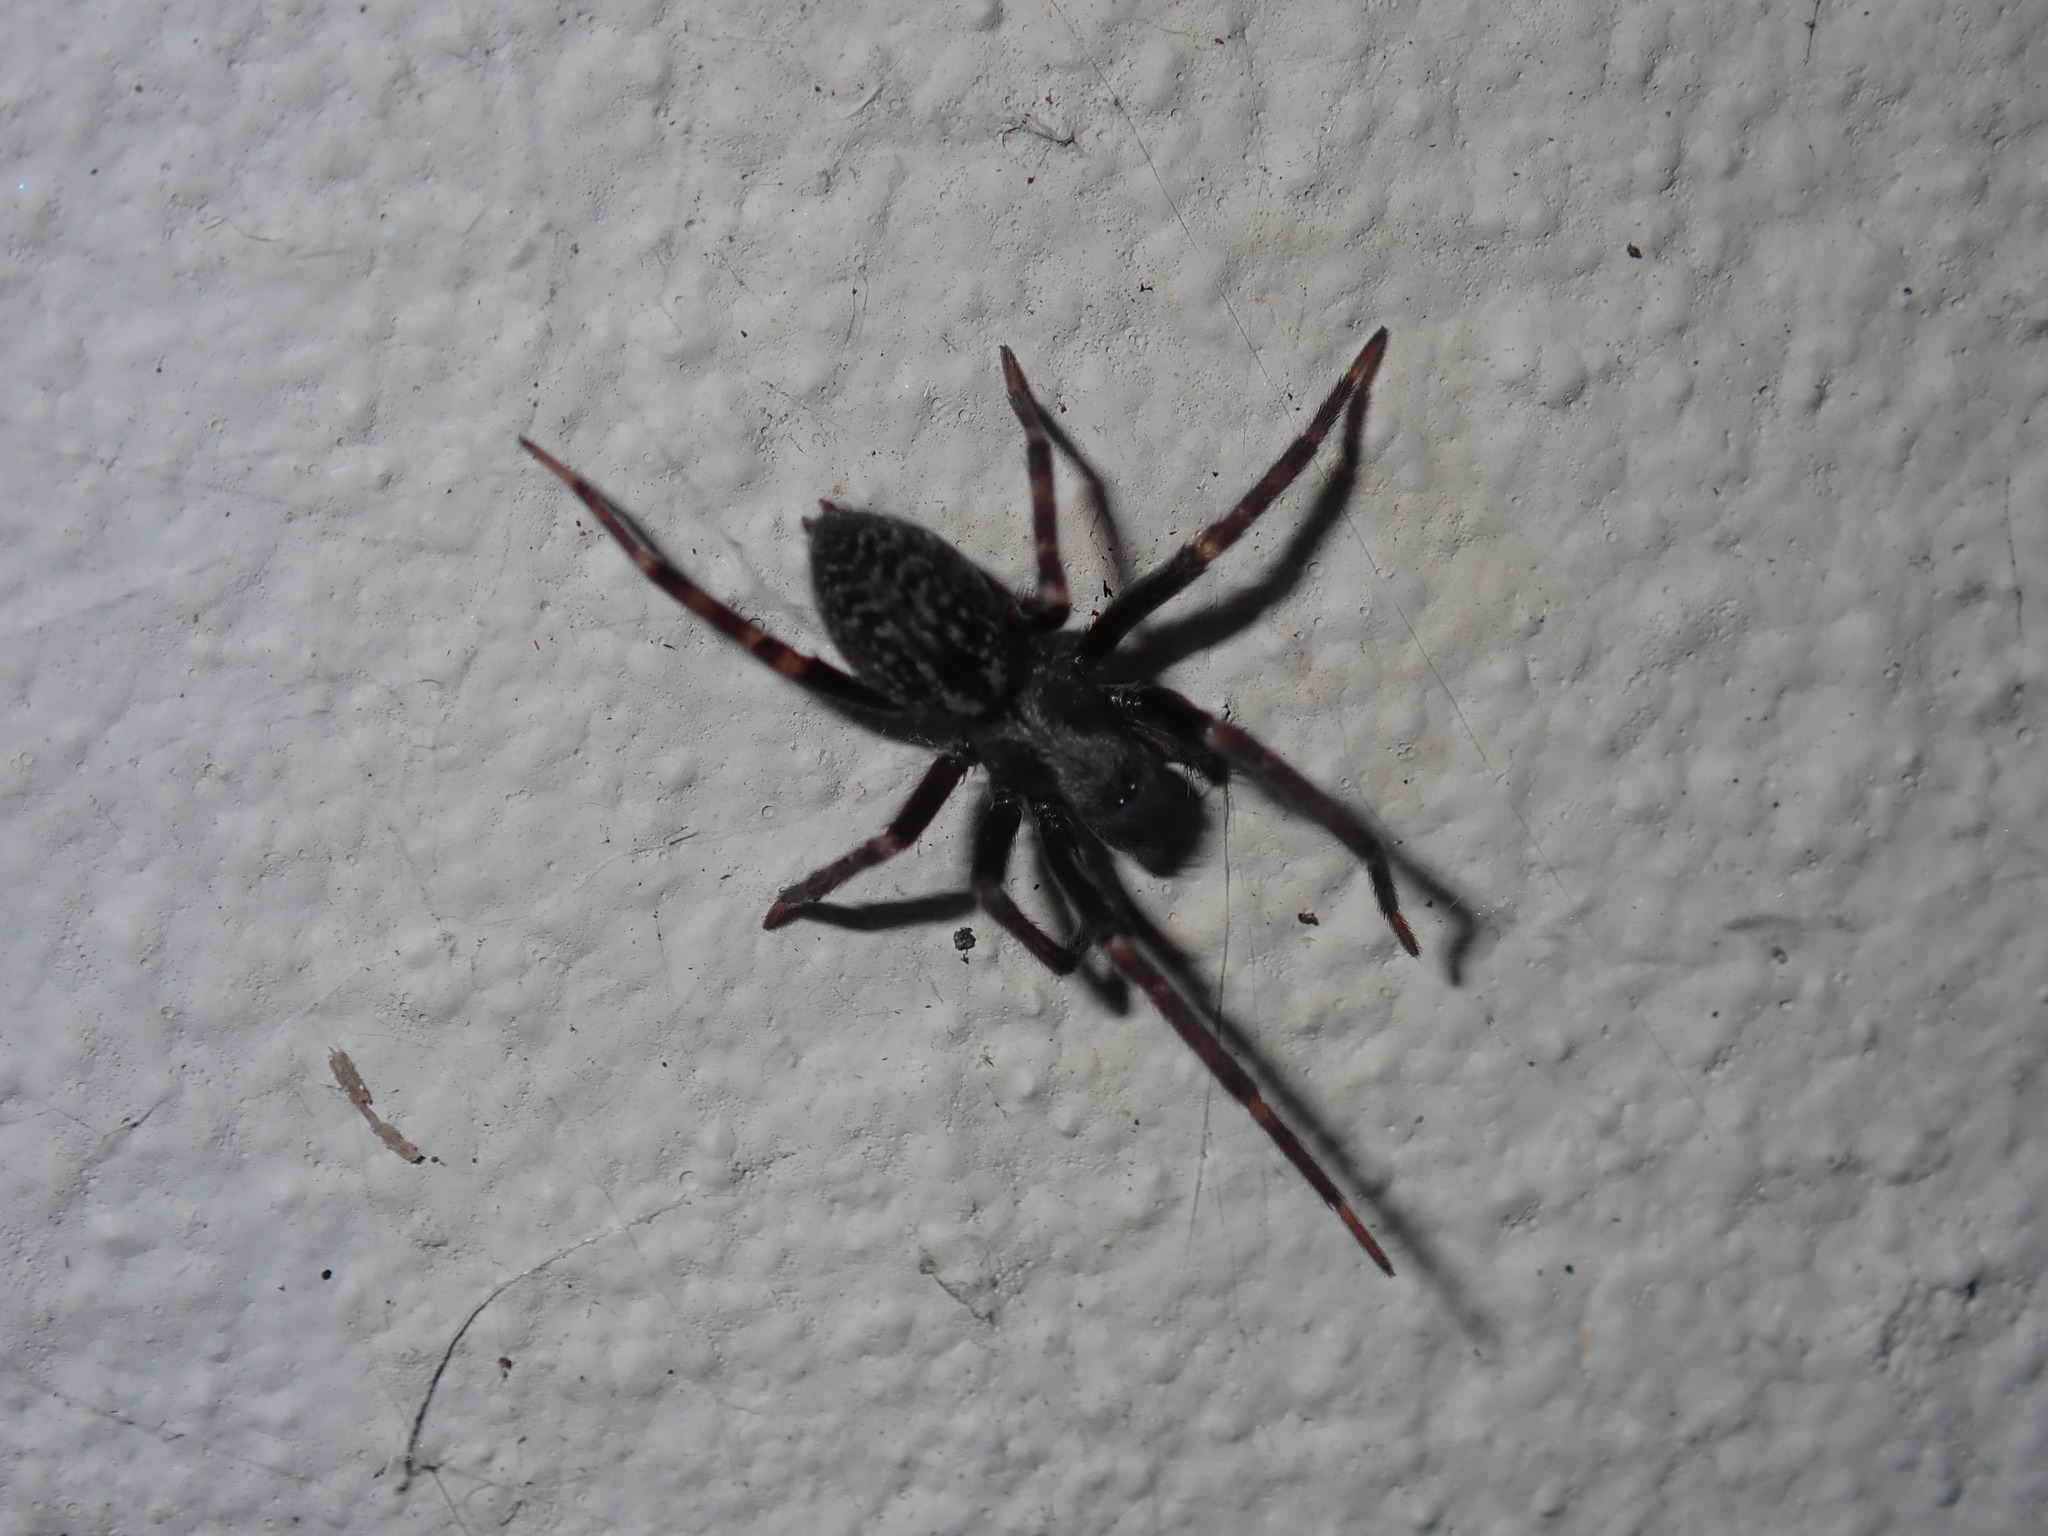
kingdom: Animalia
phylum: Arthropoda
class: Arachnida
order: Araneae
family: Desidae
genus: Badumna
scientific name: Badumna insignis
